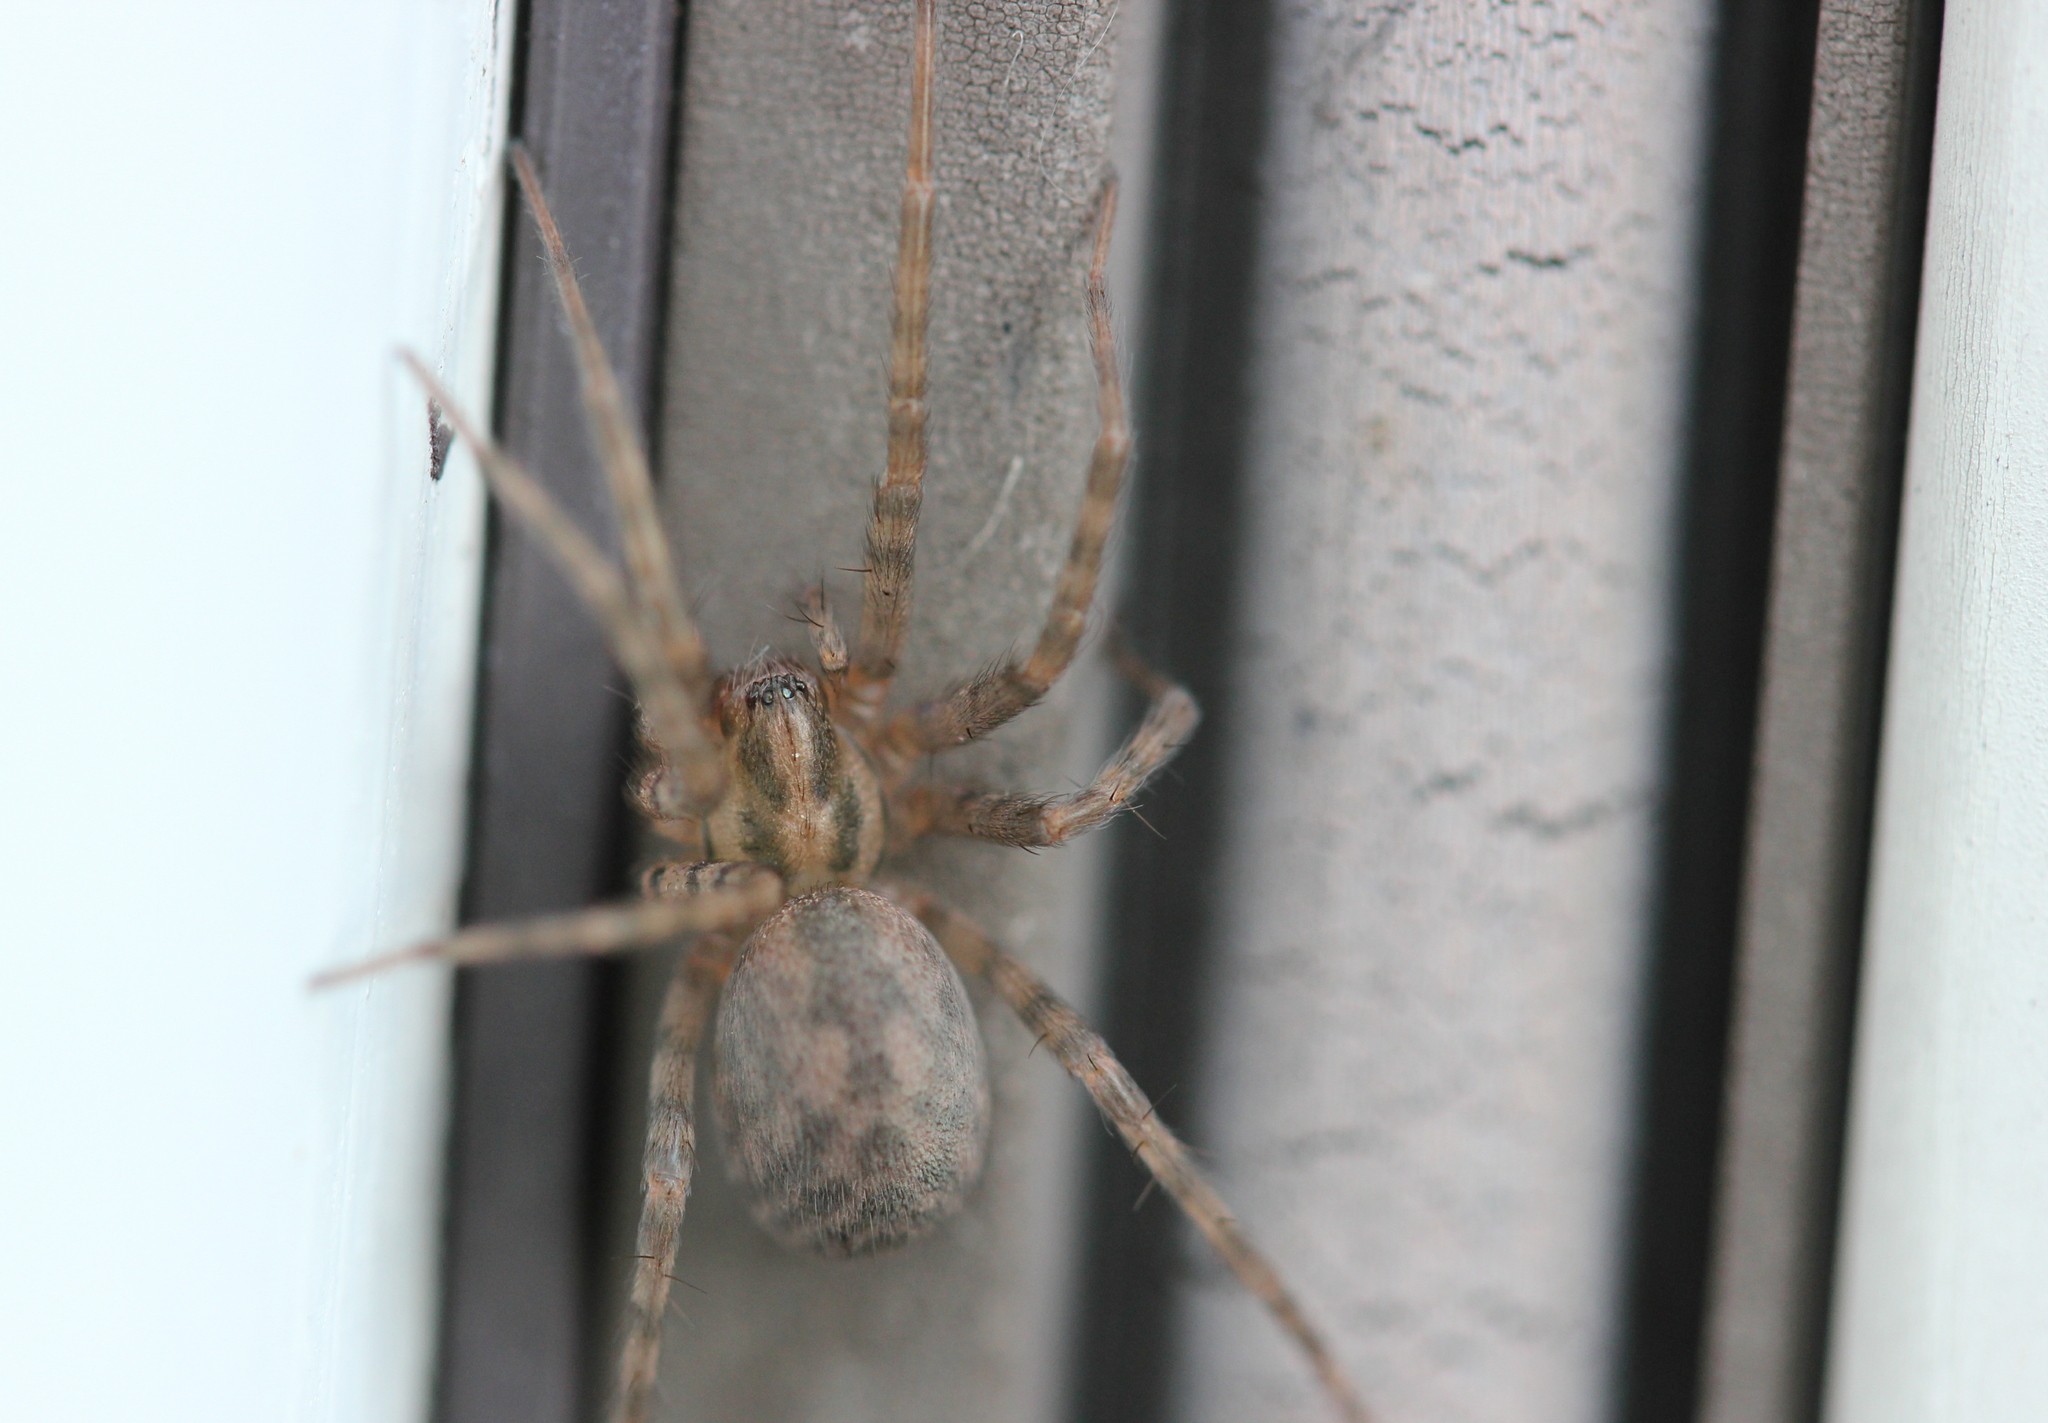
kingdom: Animalia
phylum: Arthropoda
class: Arachnida
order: Araneae
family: Agelenidae
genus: Tegenaria
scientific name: Tegenaria domestica
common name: Barn funnel weaver
